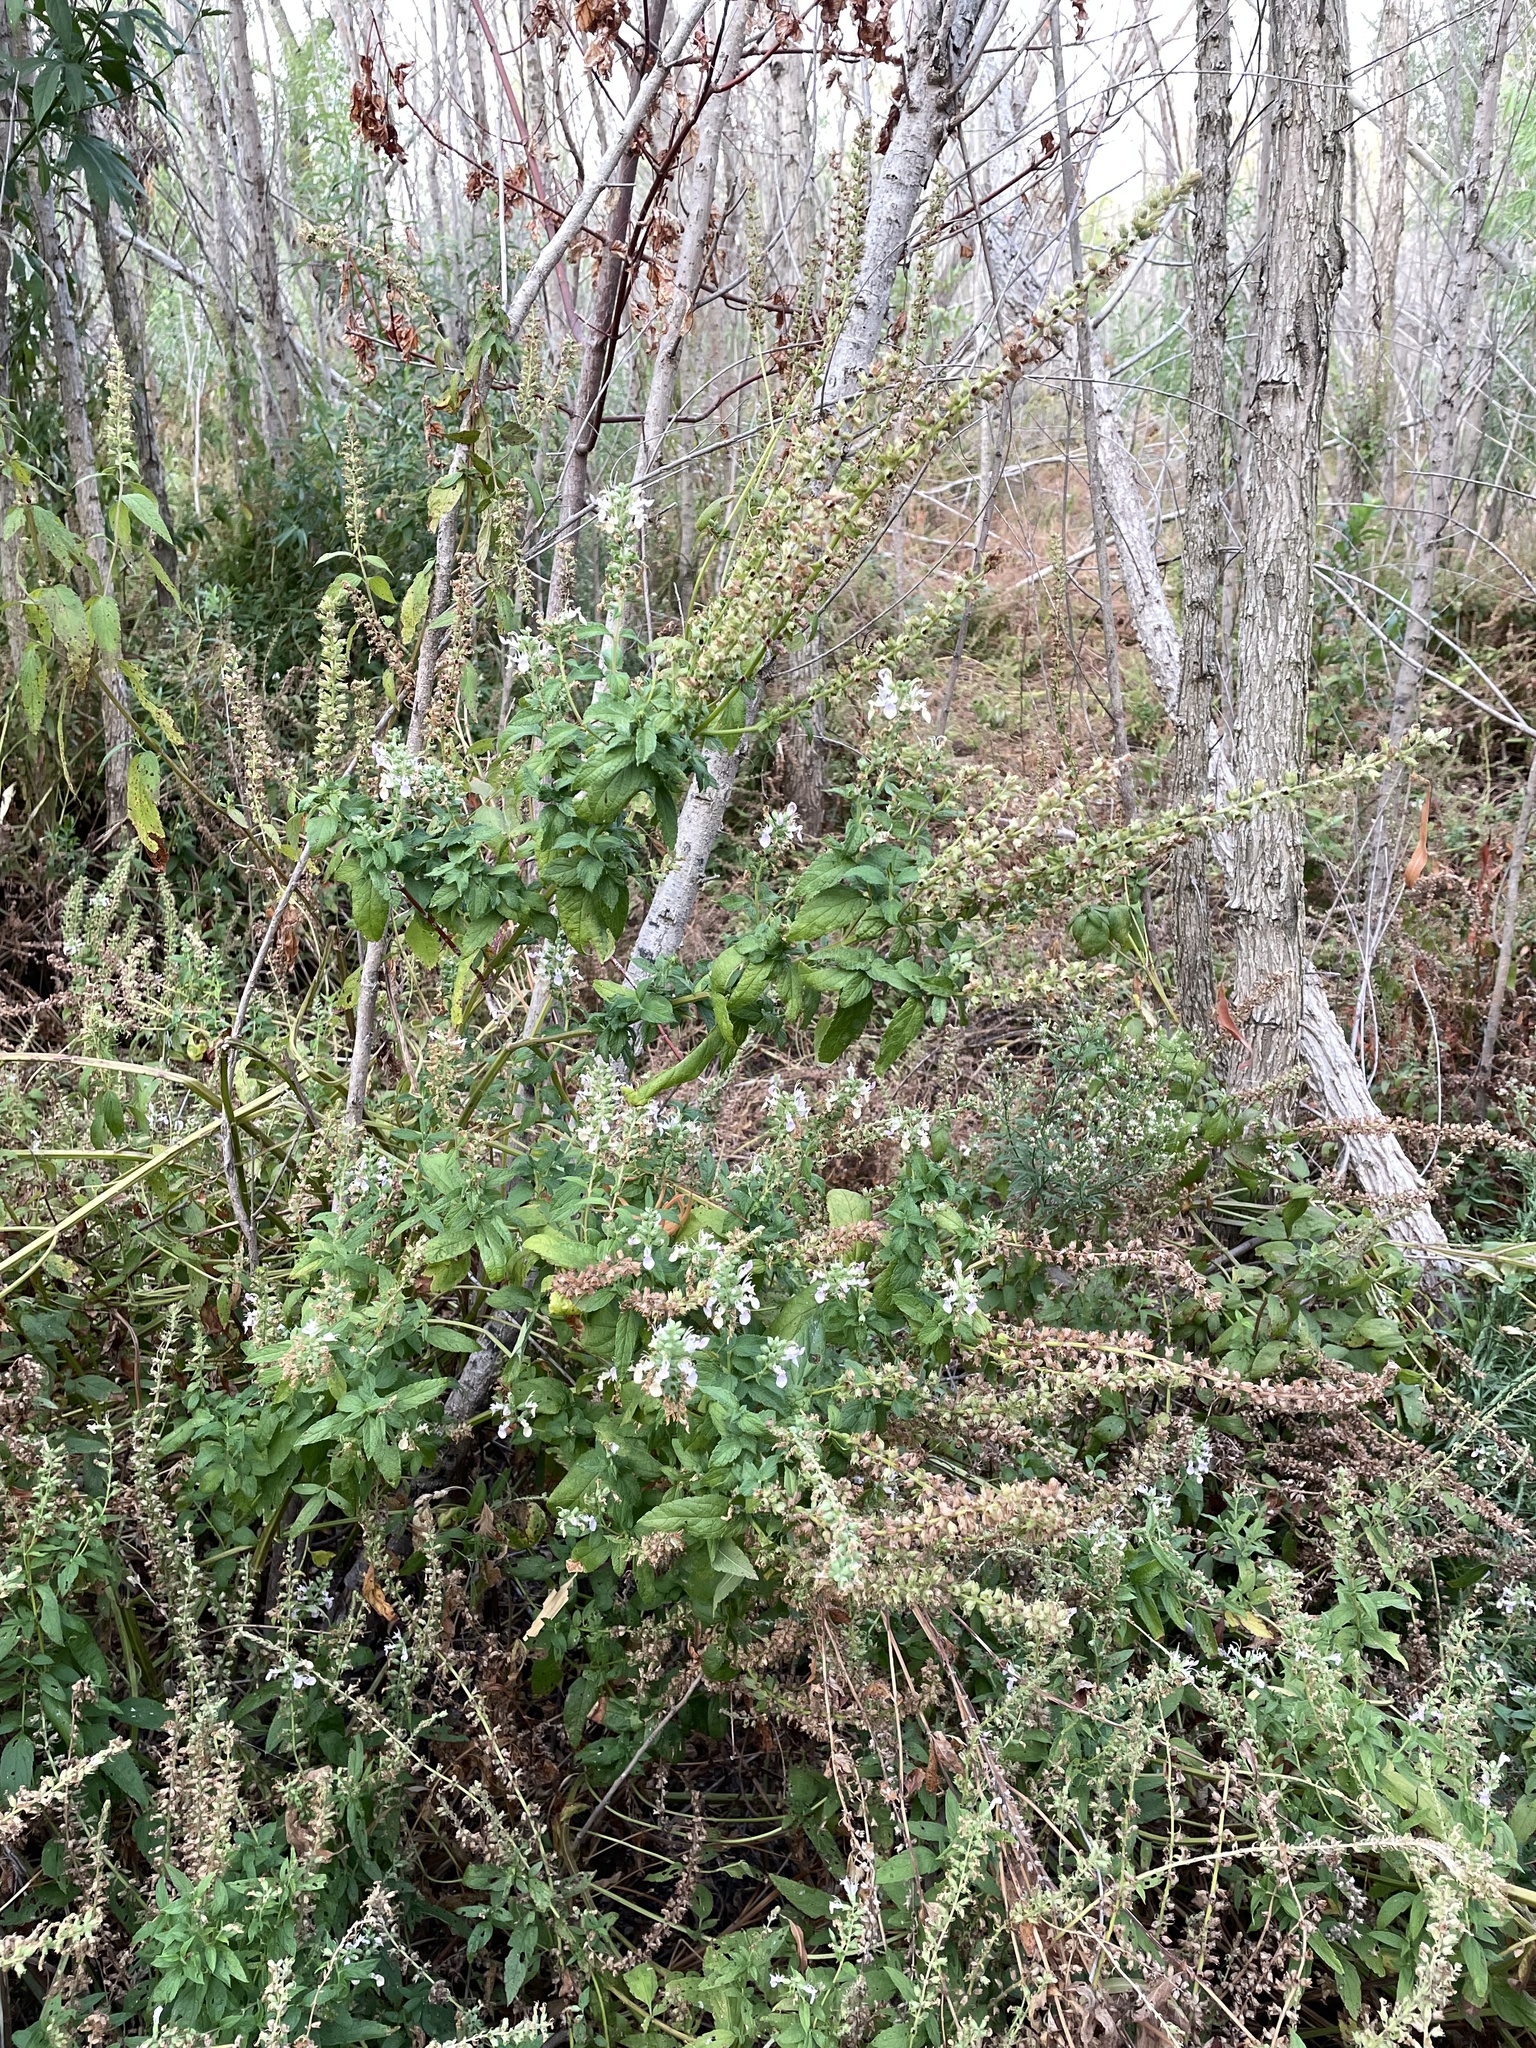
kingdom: Plantae
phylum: Tracheophyta
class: Magnoliopsida
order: Lamiales
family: Lamiaceae
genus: Teucrium
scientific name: Teucrium canadense
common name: American germander
